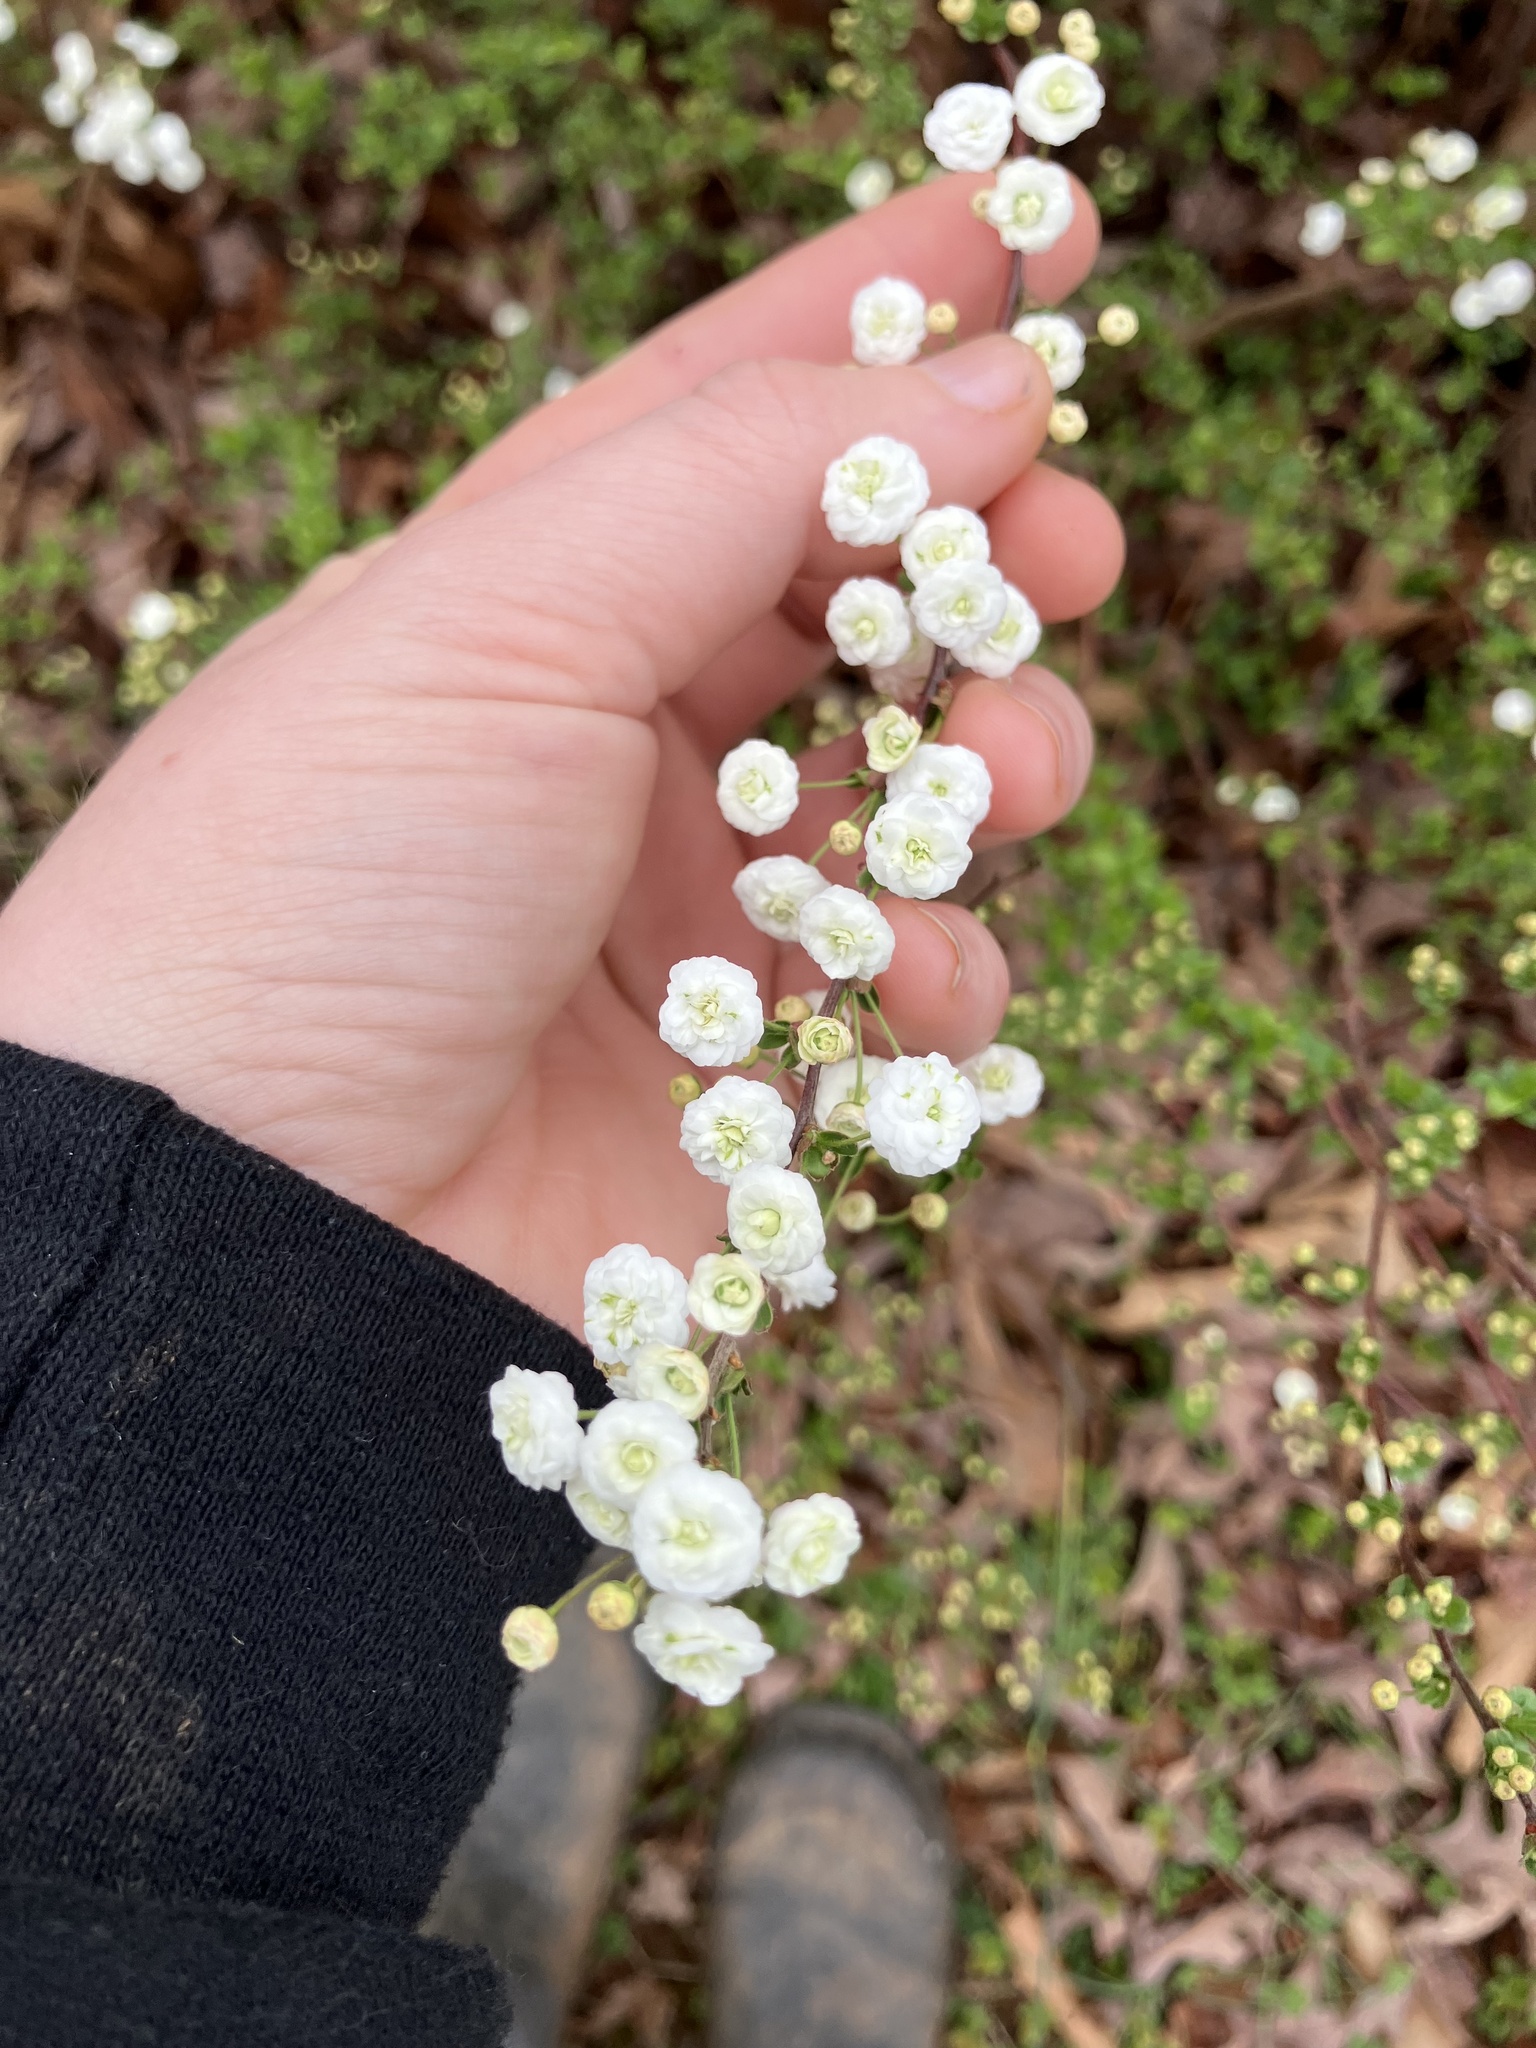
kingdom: Plantae
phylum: Tracheophyta
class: Magnoliopsida
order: Rosales
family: Rosaceae
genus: Spiraea
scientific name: Spiraea prunifolia
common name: Bridal-wreath spiraea
